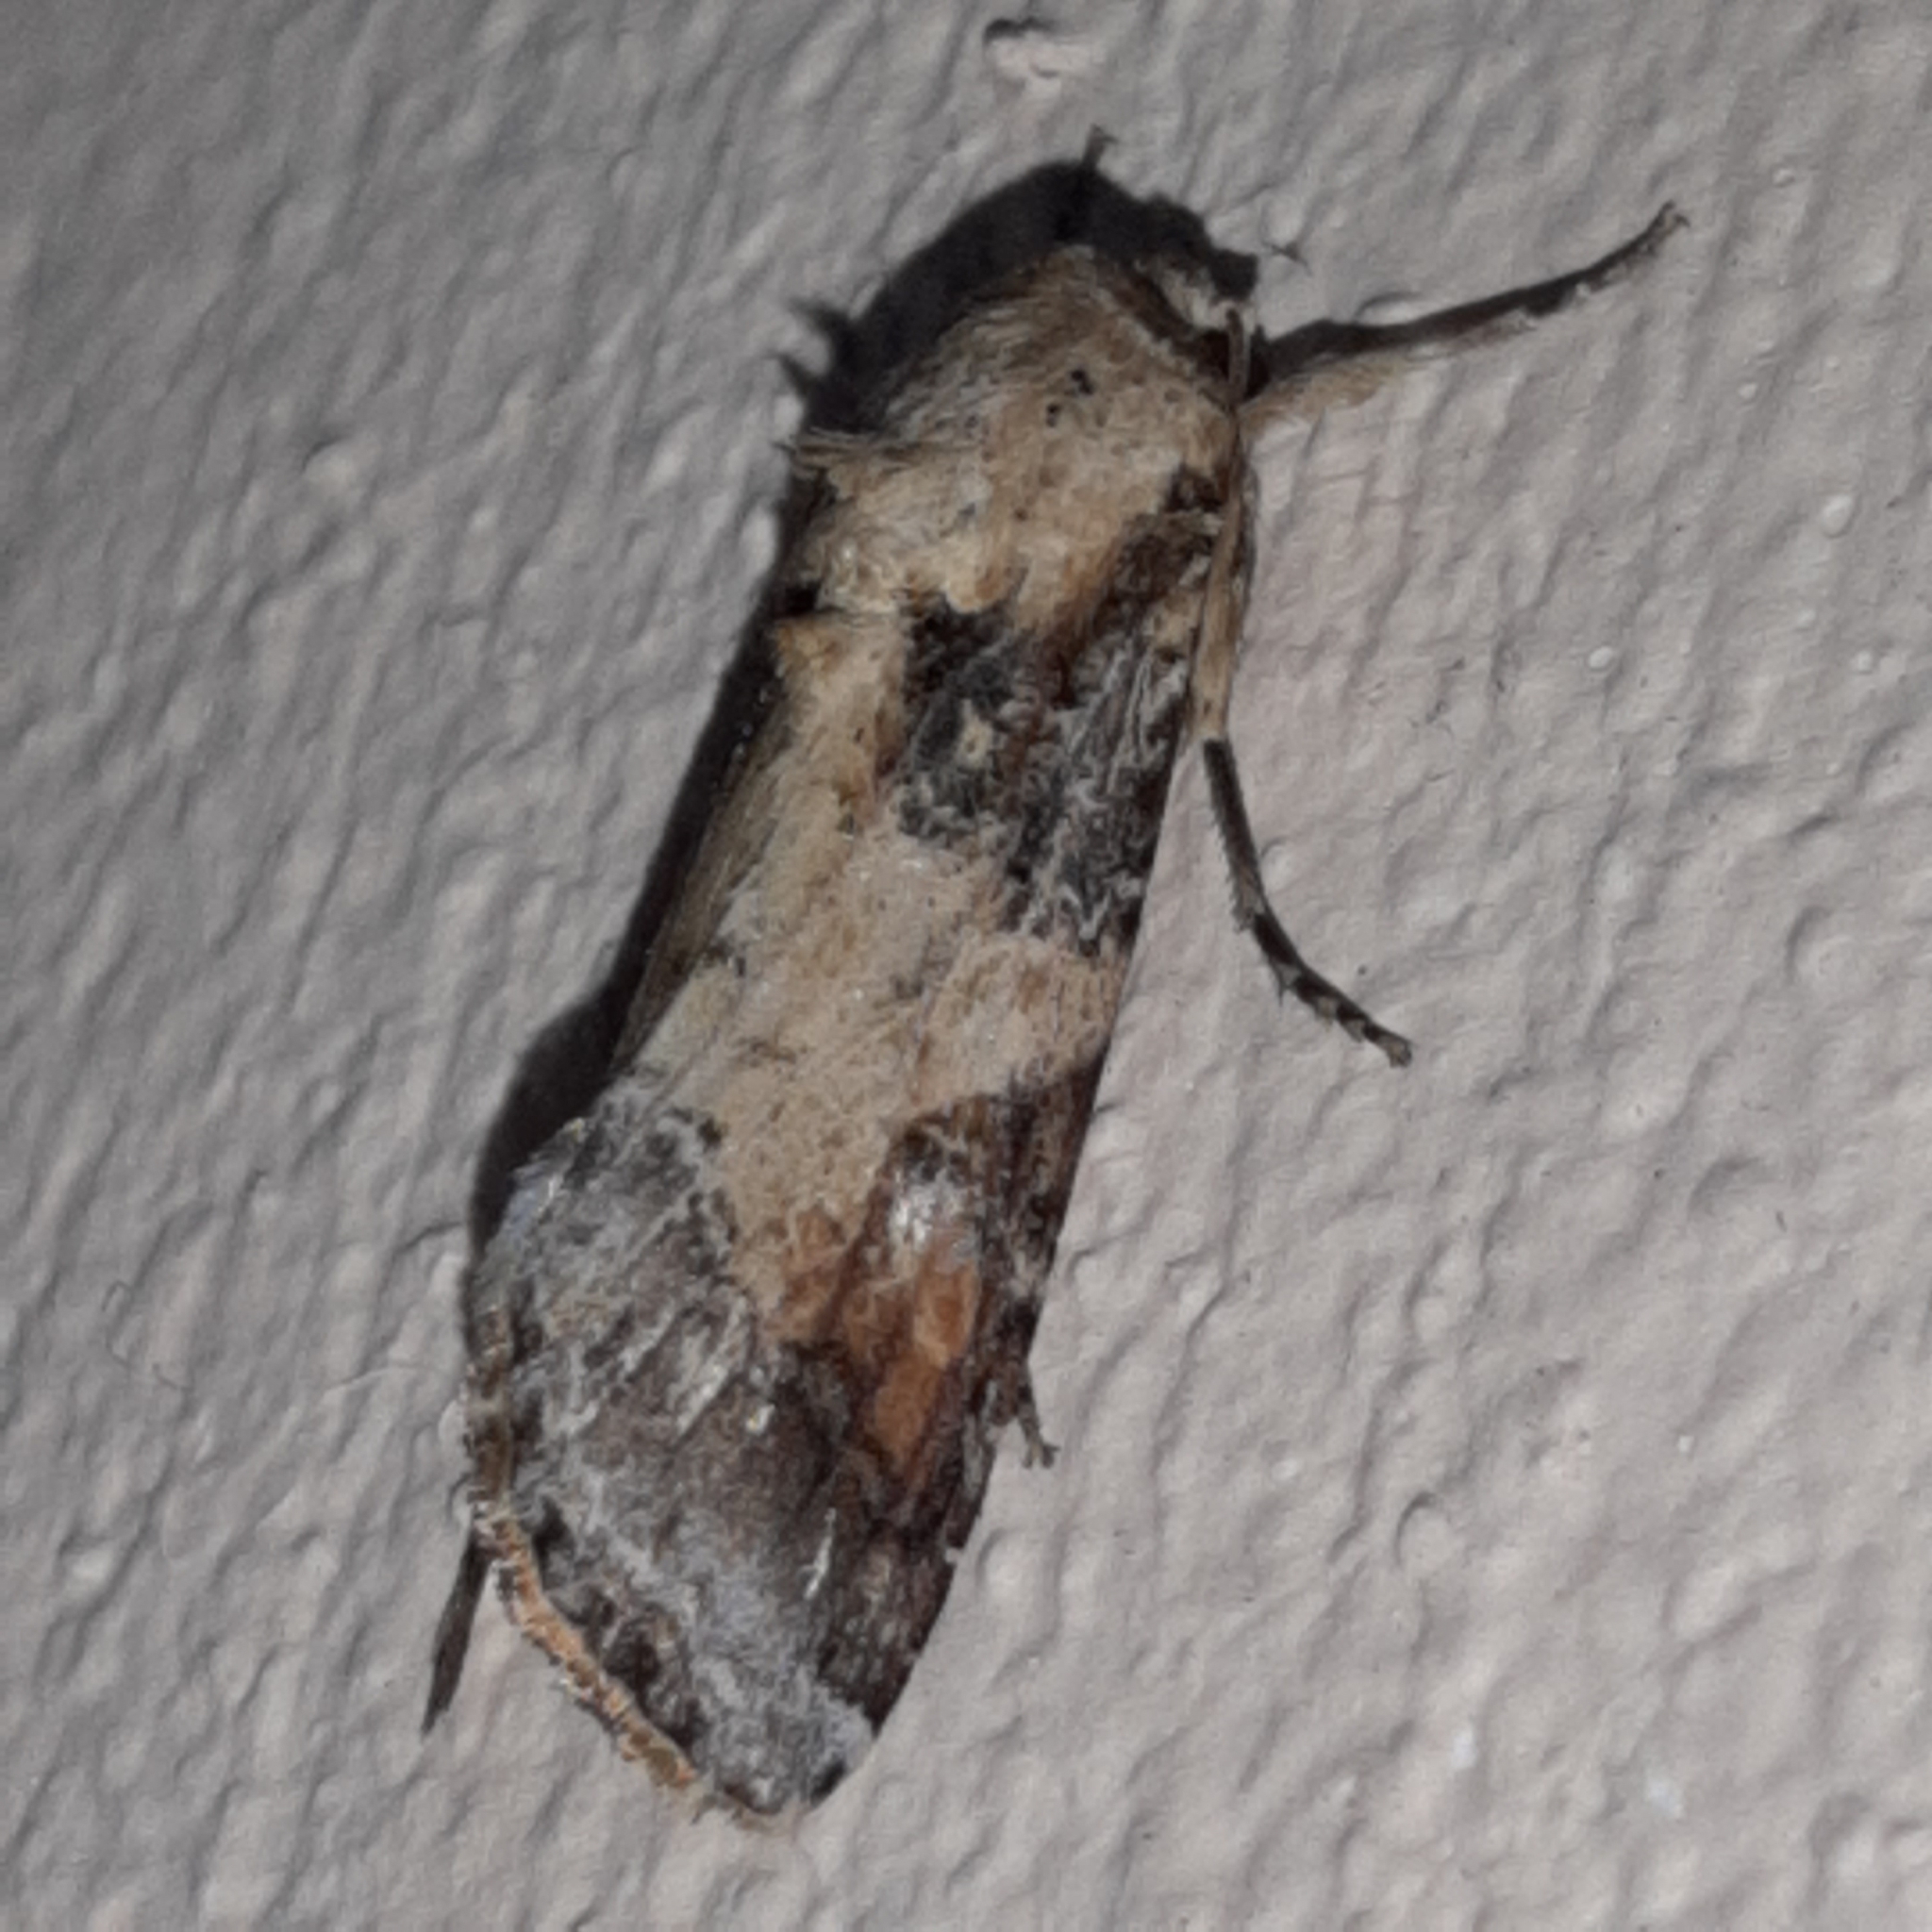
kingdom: Animalia
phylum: Arthropoda
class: Insecta
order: Lepidoptera
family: Noctuidae
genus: Spodoptera
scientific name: Spodoptera latifascia
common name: Velvet armyworm moth
